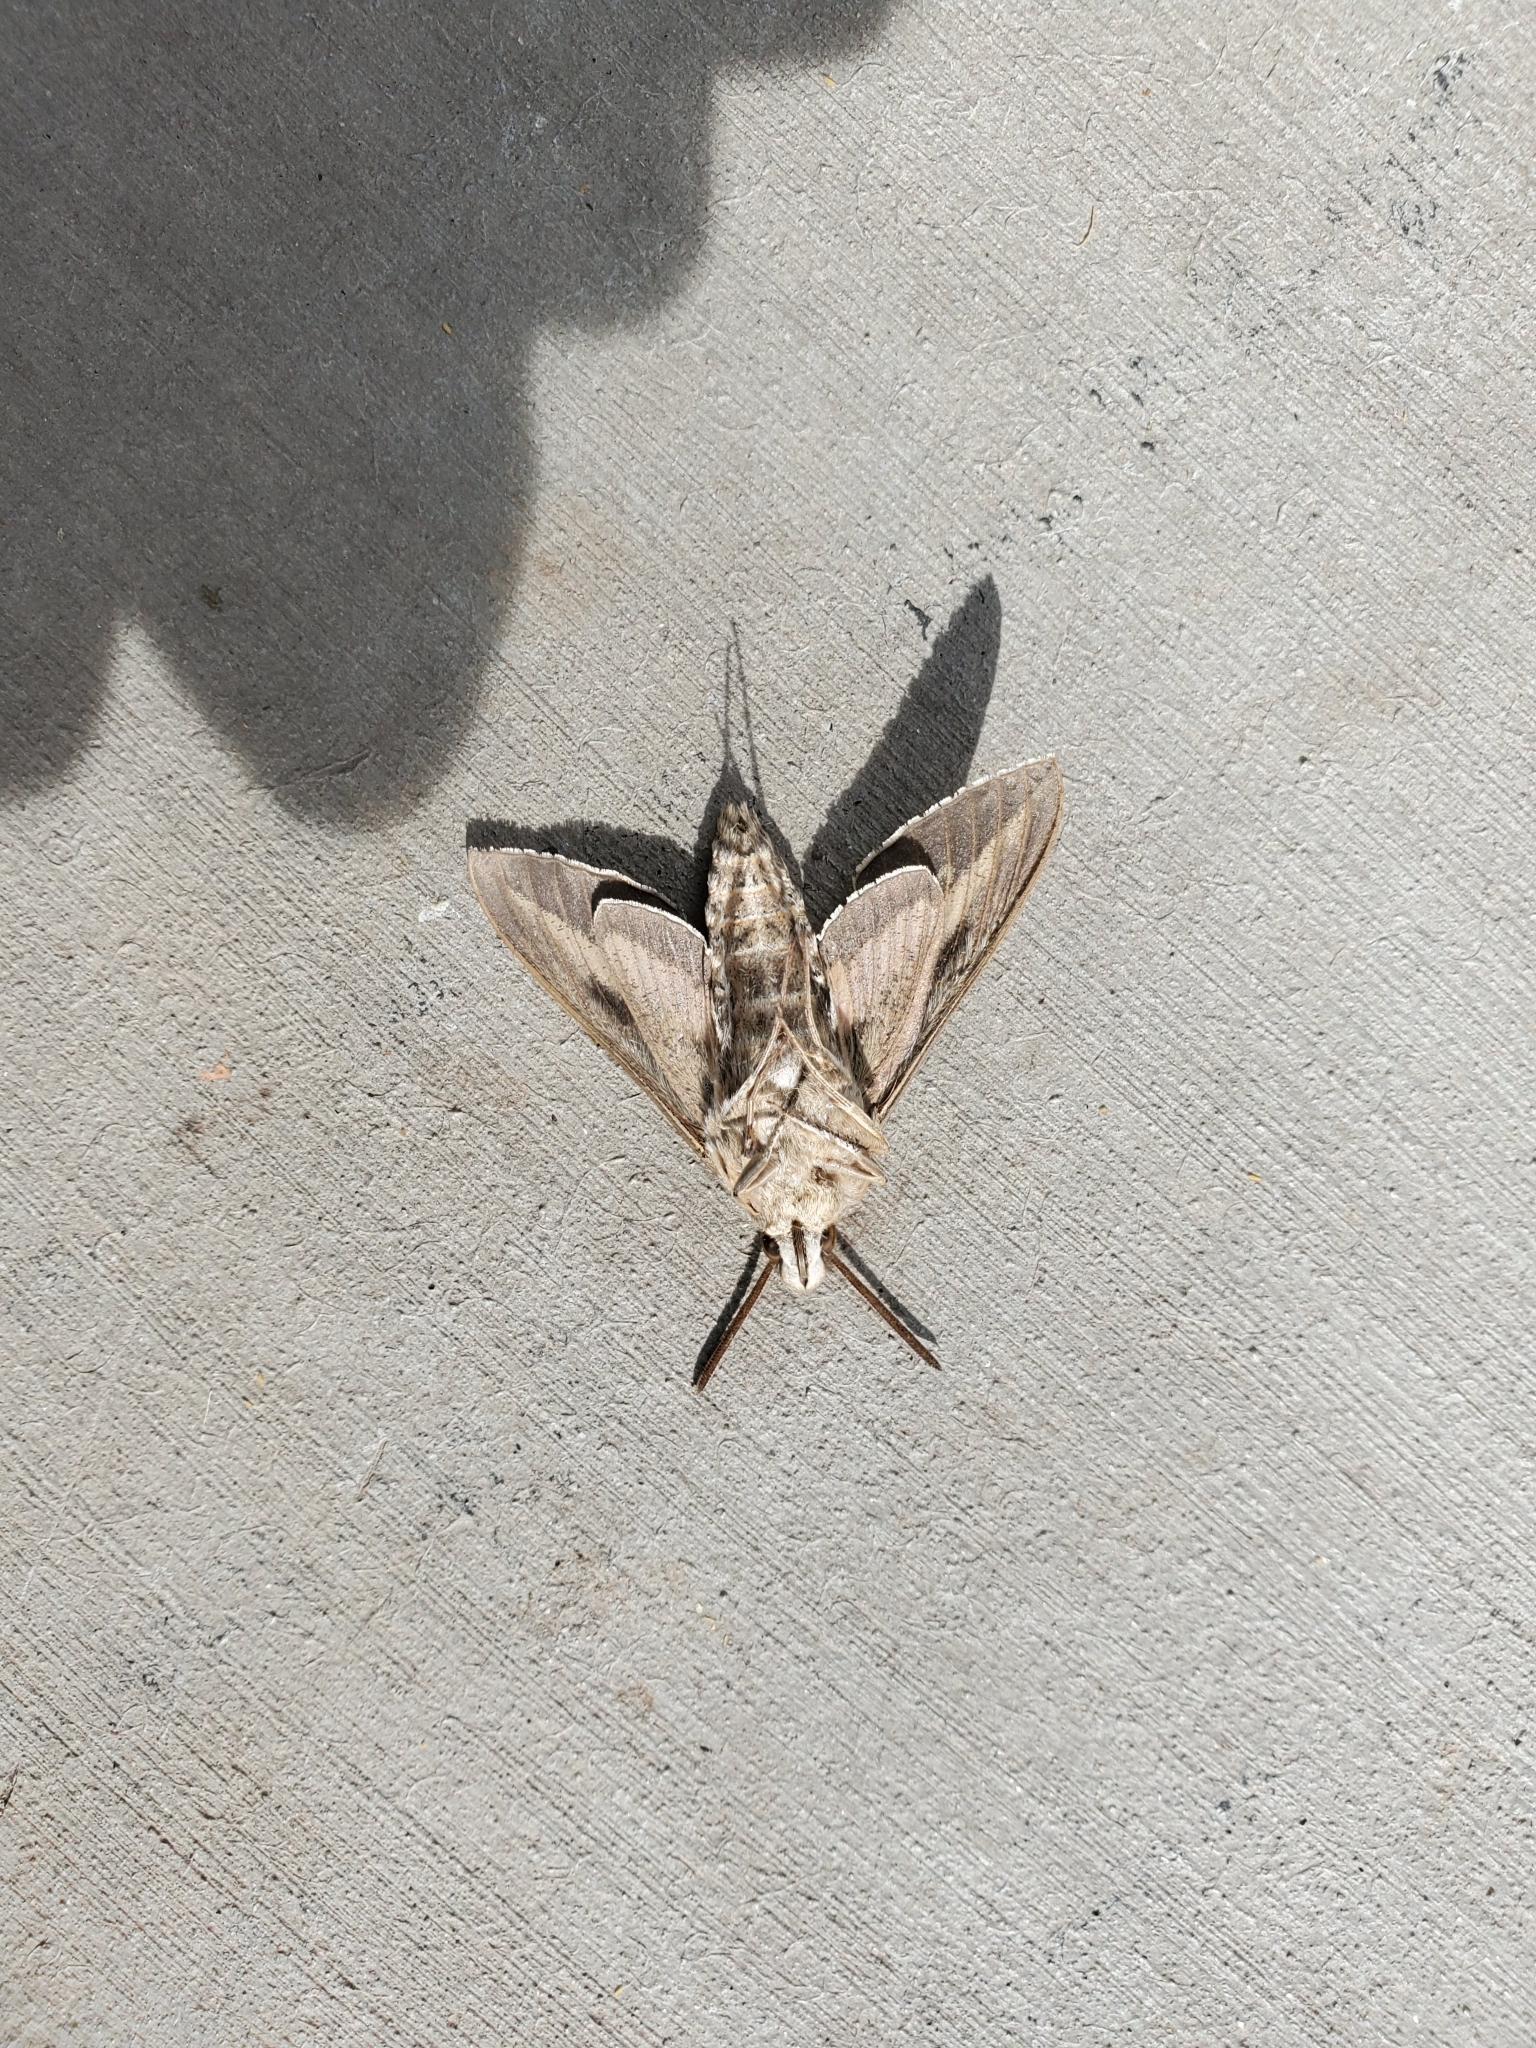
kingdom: Animalia
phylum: Arthropoda
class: Insecta
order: Lepidoptera
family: Sphingidae
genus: Hyles
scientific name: Hyles lineata
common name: White-lined sphinx
